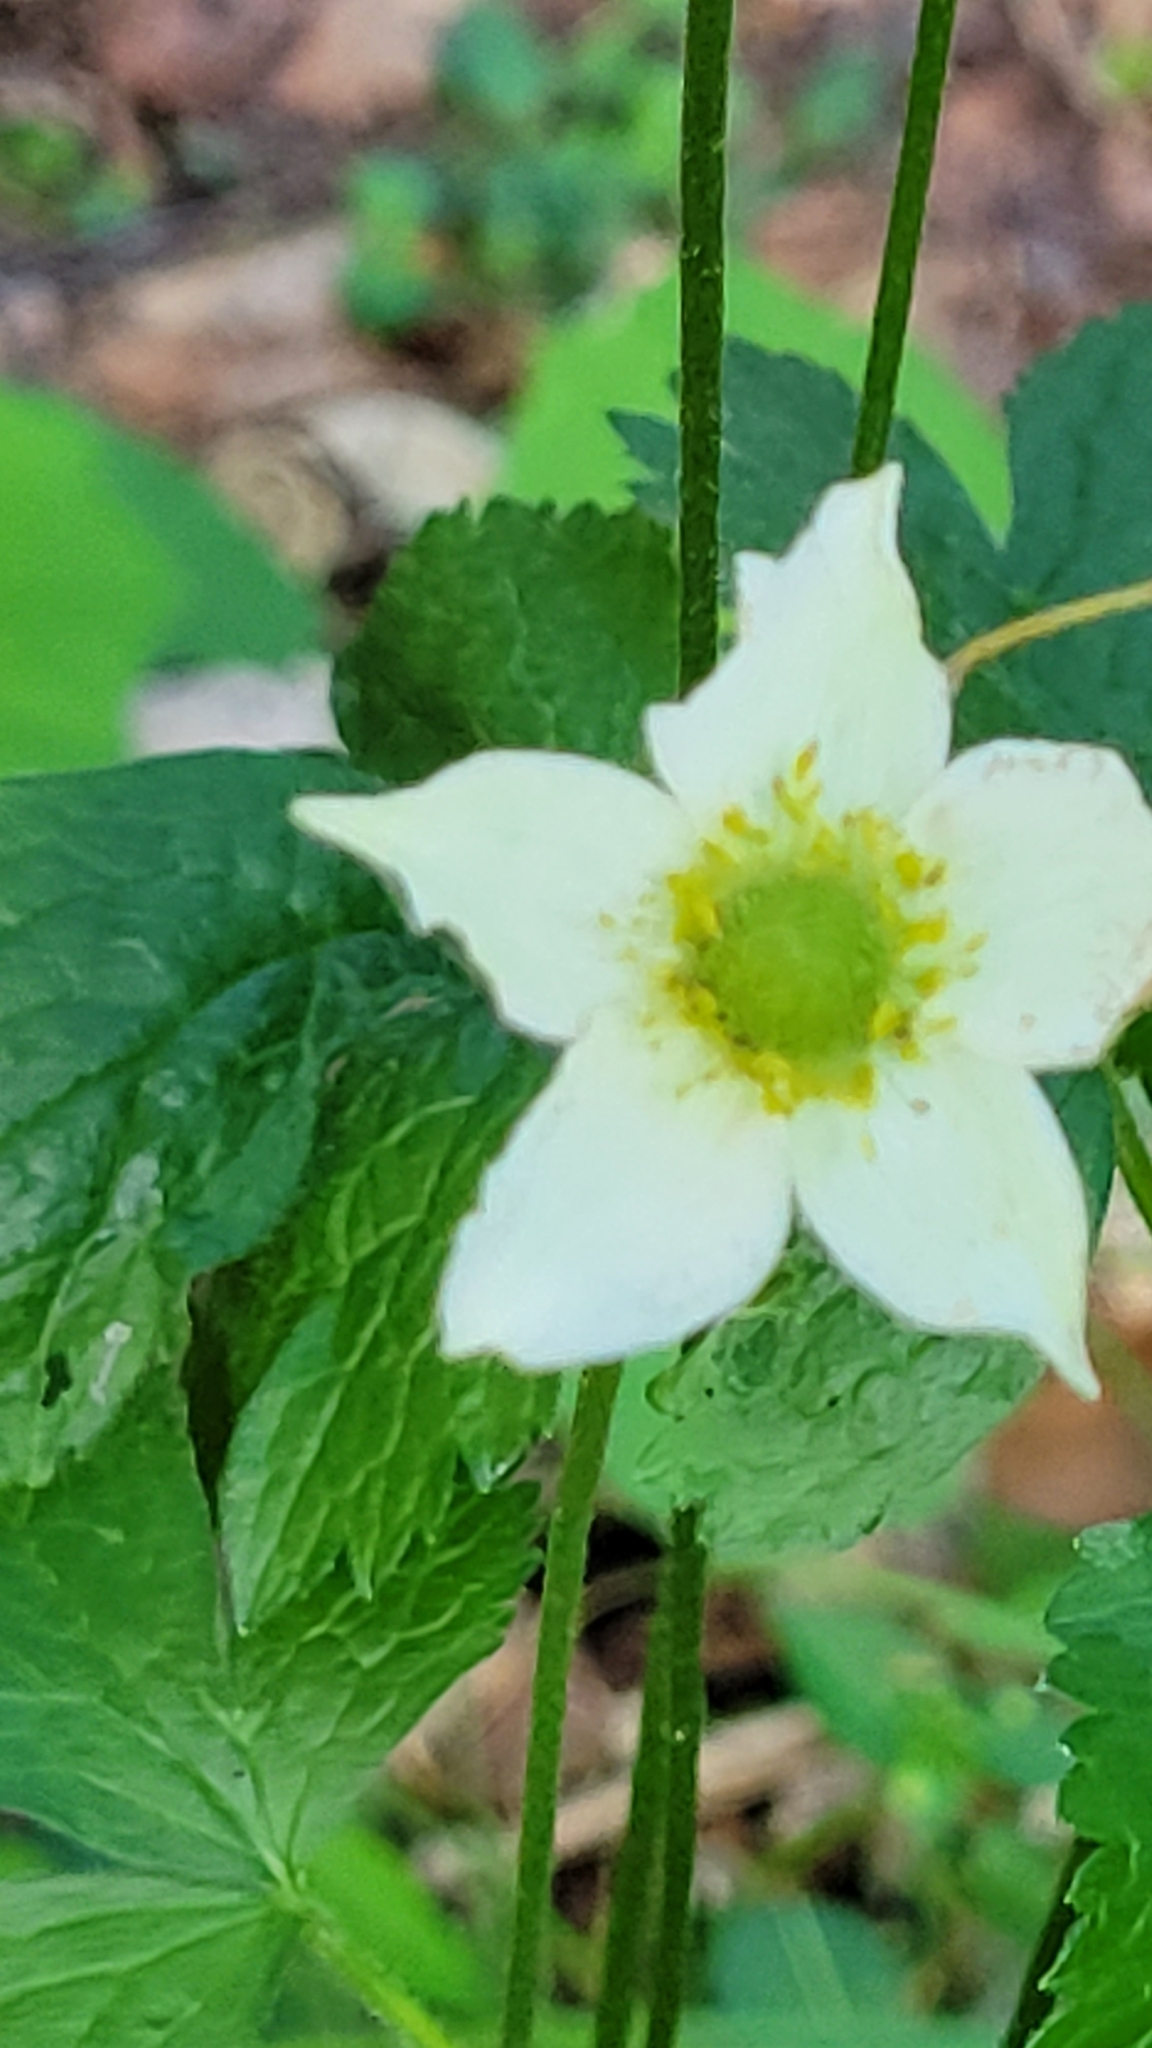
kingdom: Plantae
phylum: Tracheophyta
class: Magnoliopsida
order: Ranunculales
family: Ranunculaceae
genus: Anemone
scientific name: Anemone virginiana
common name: Tall anemone
